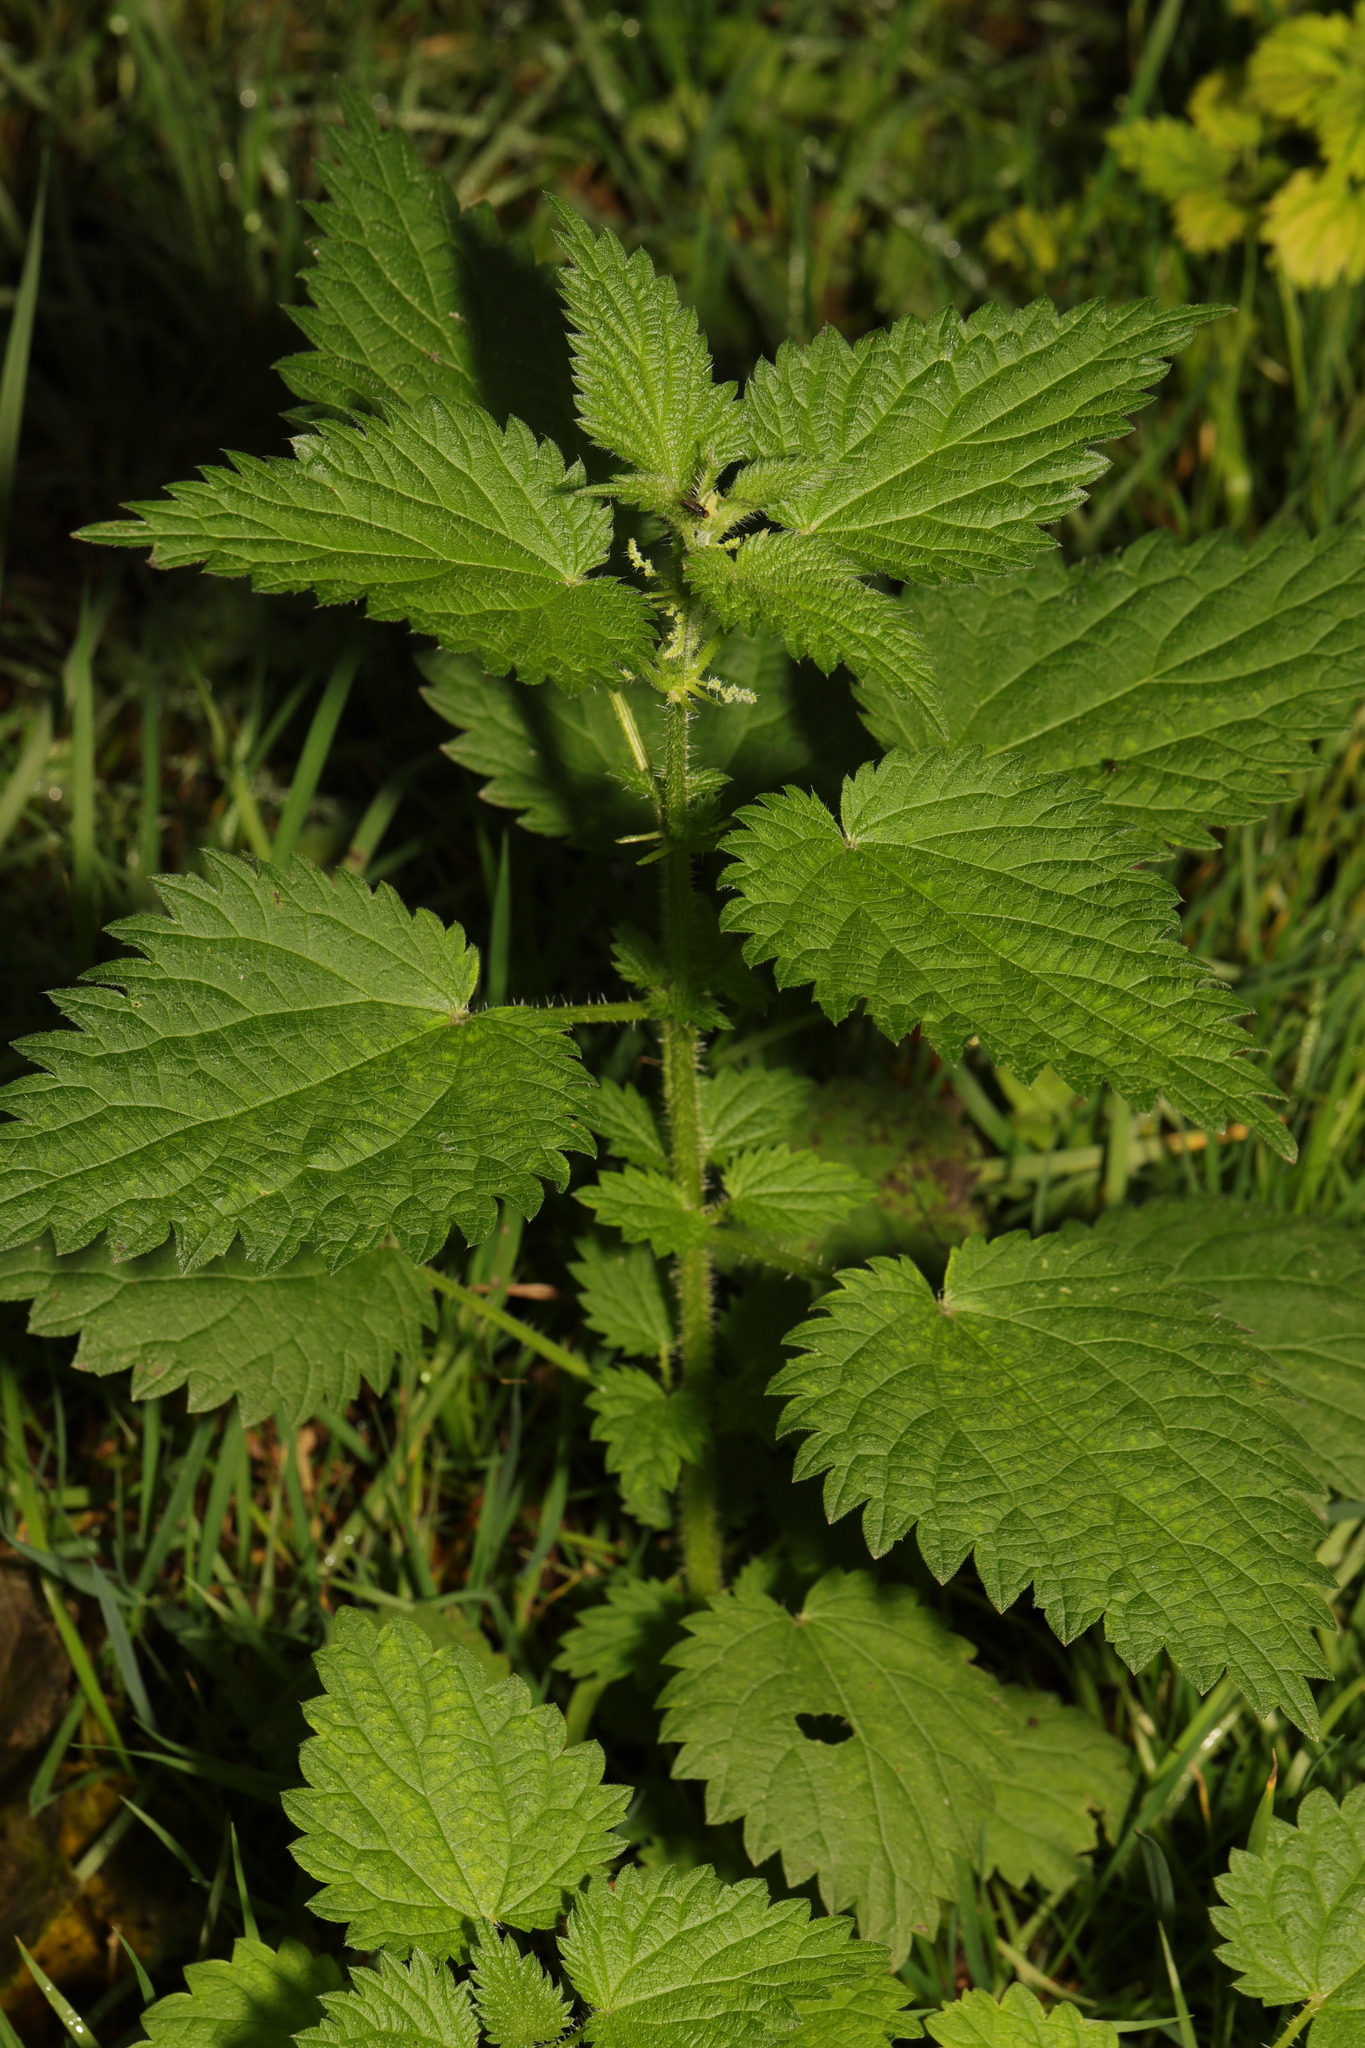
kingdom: Plantae
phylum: Tracheophyta
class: Magnoliopsida
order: Rosales
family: Urticaceae
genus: Urtica
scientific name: Urtica dioica
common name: Common nettle
